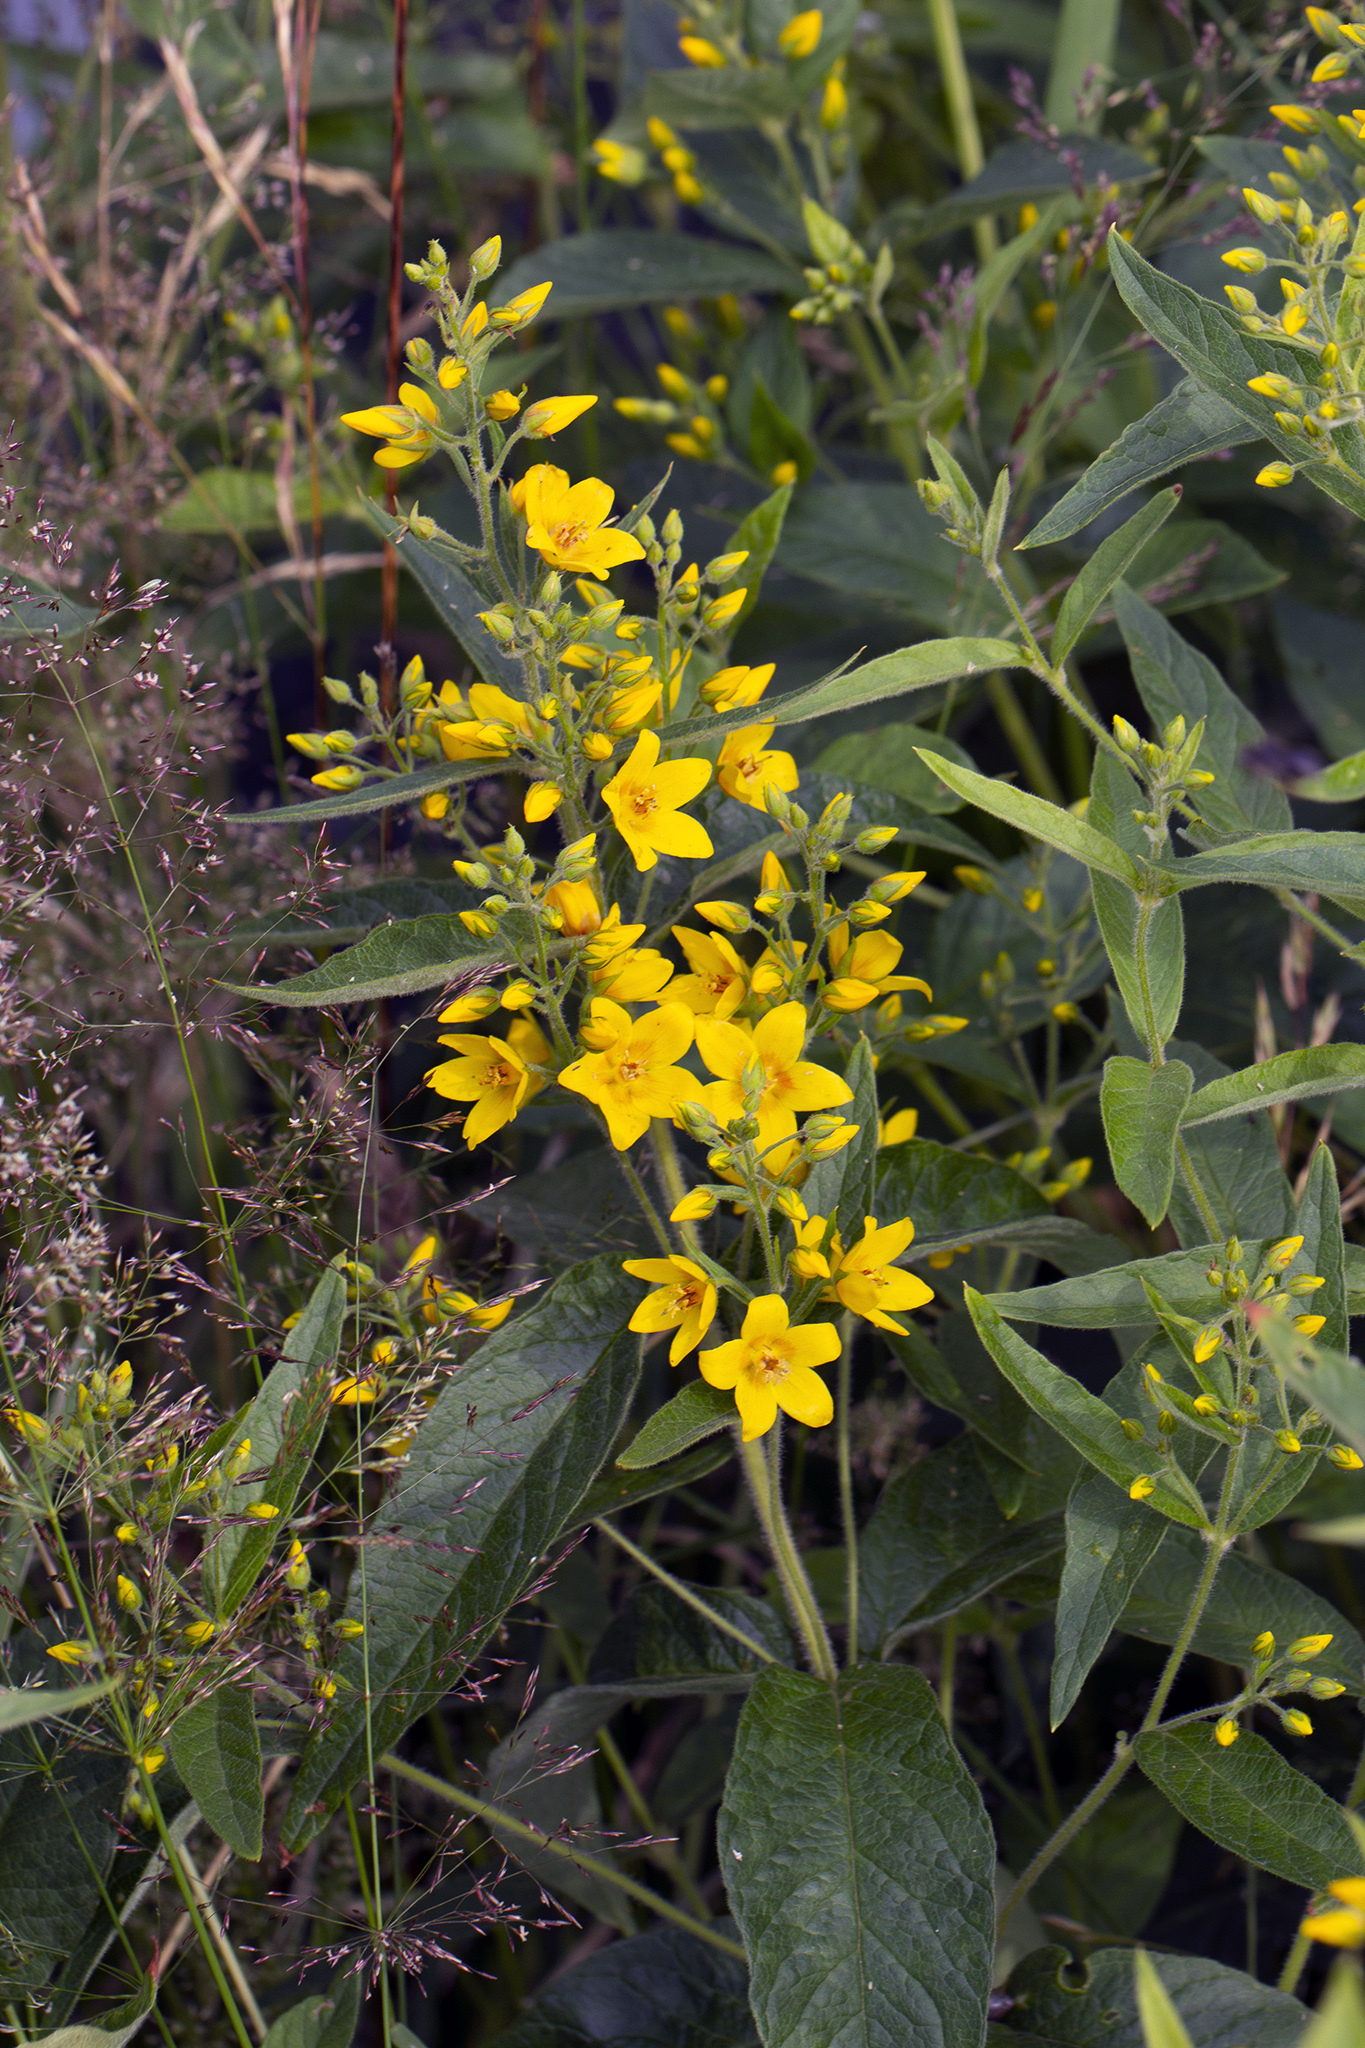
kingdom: Plantae
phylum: Tracheophyta
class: Magnoliopsida
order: Ericales
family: Primulaceae
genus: Lysimachia
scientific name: Lysimachia vulgaris
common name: Yellow loosestrife
